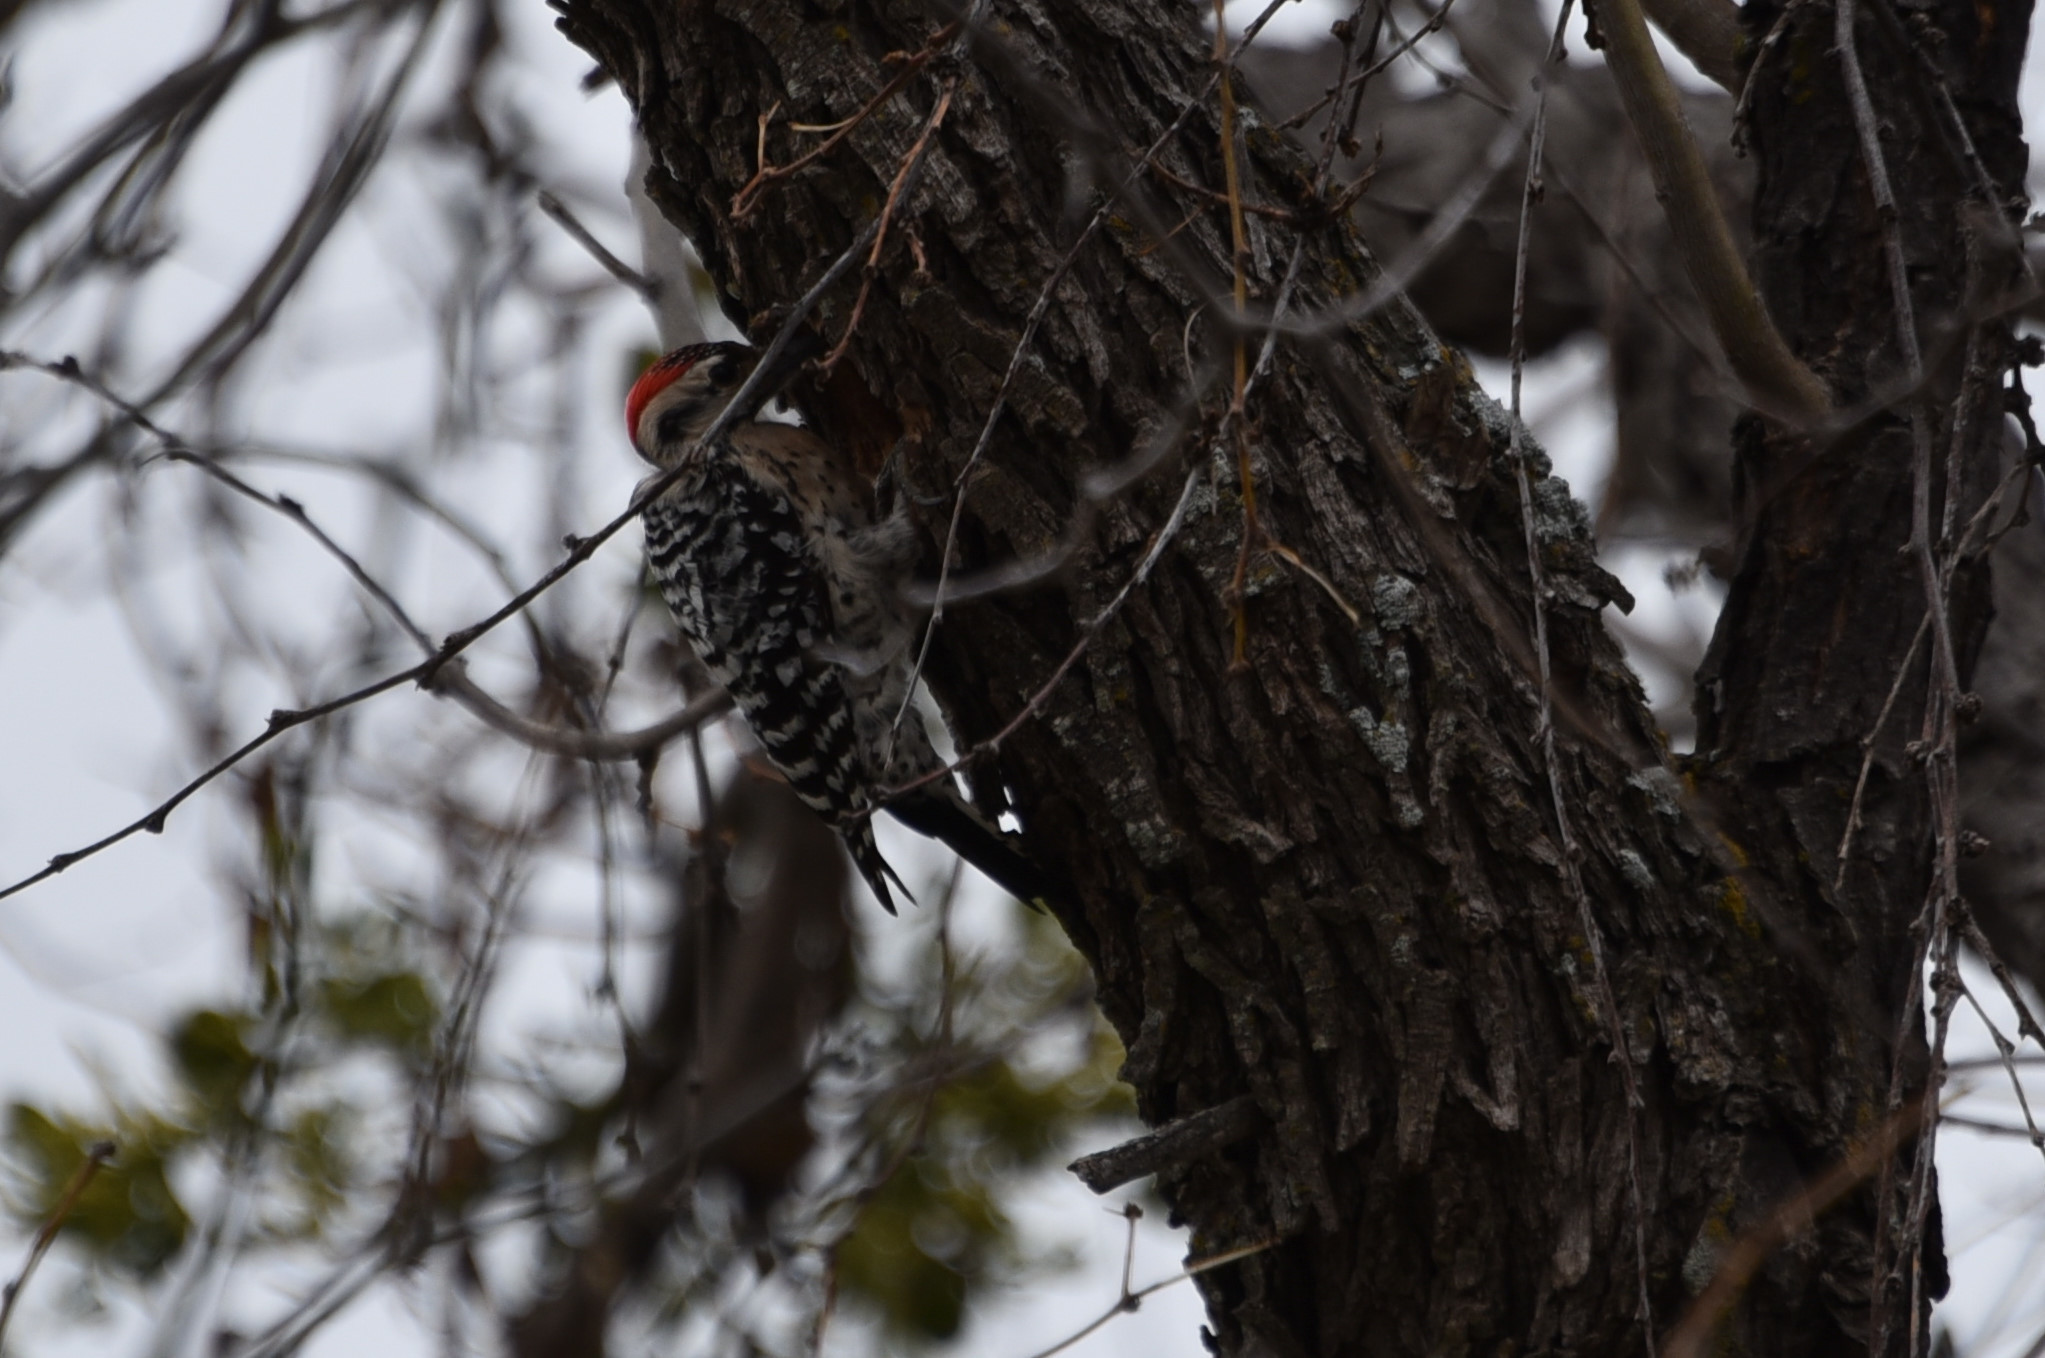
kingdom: Animalia
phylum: Chordata
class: Aves
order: Piciformes
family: Picidae
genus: Dryobates
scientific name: Dryobates scalaris
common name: Ladder-backed woodpecker
